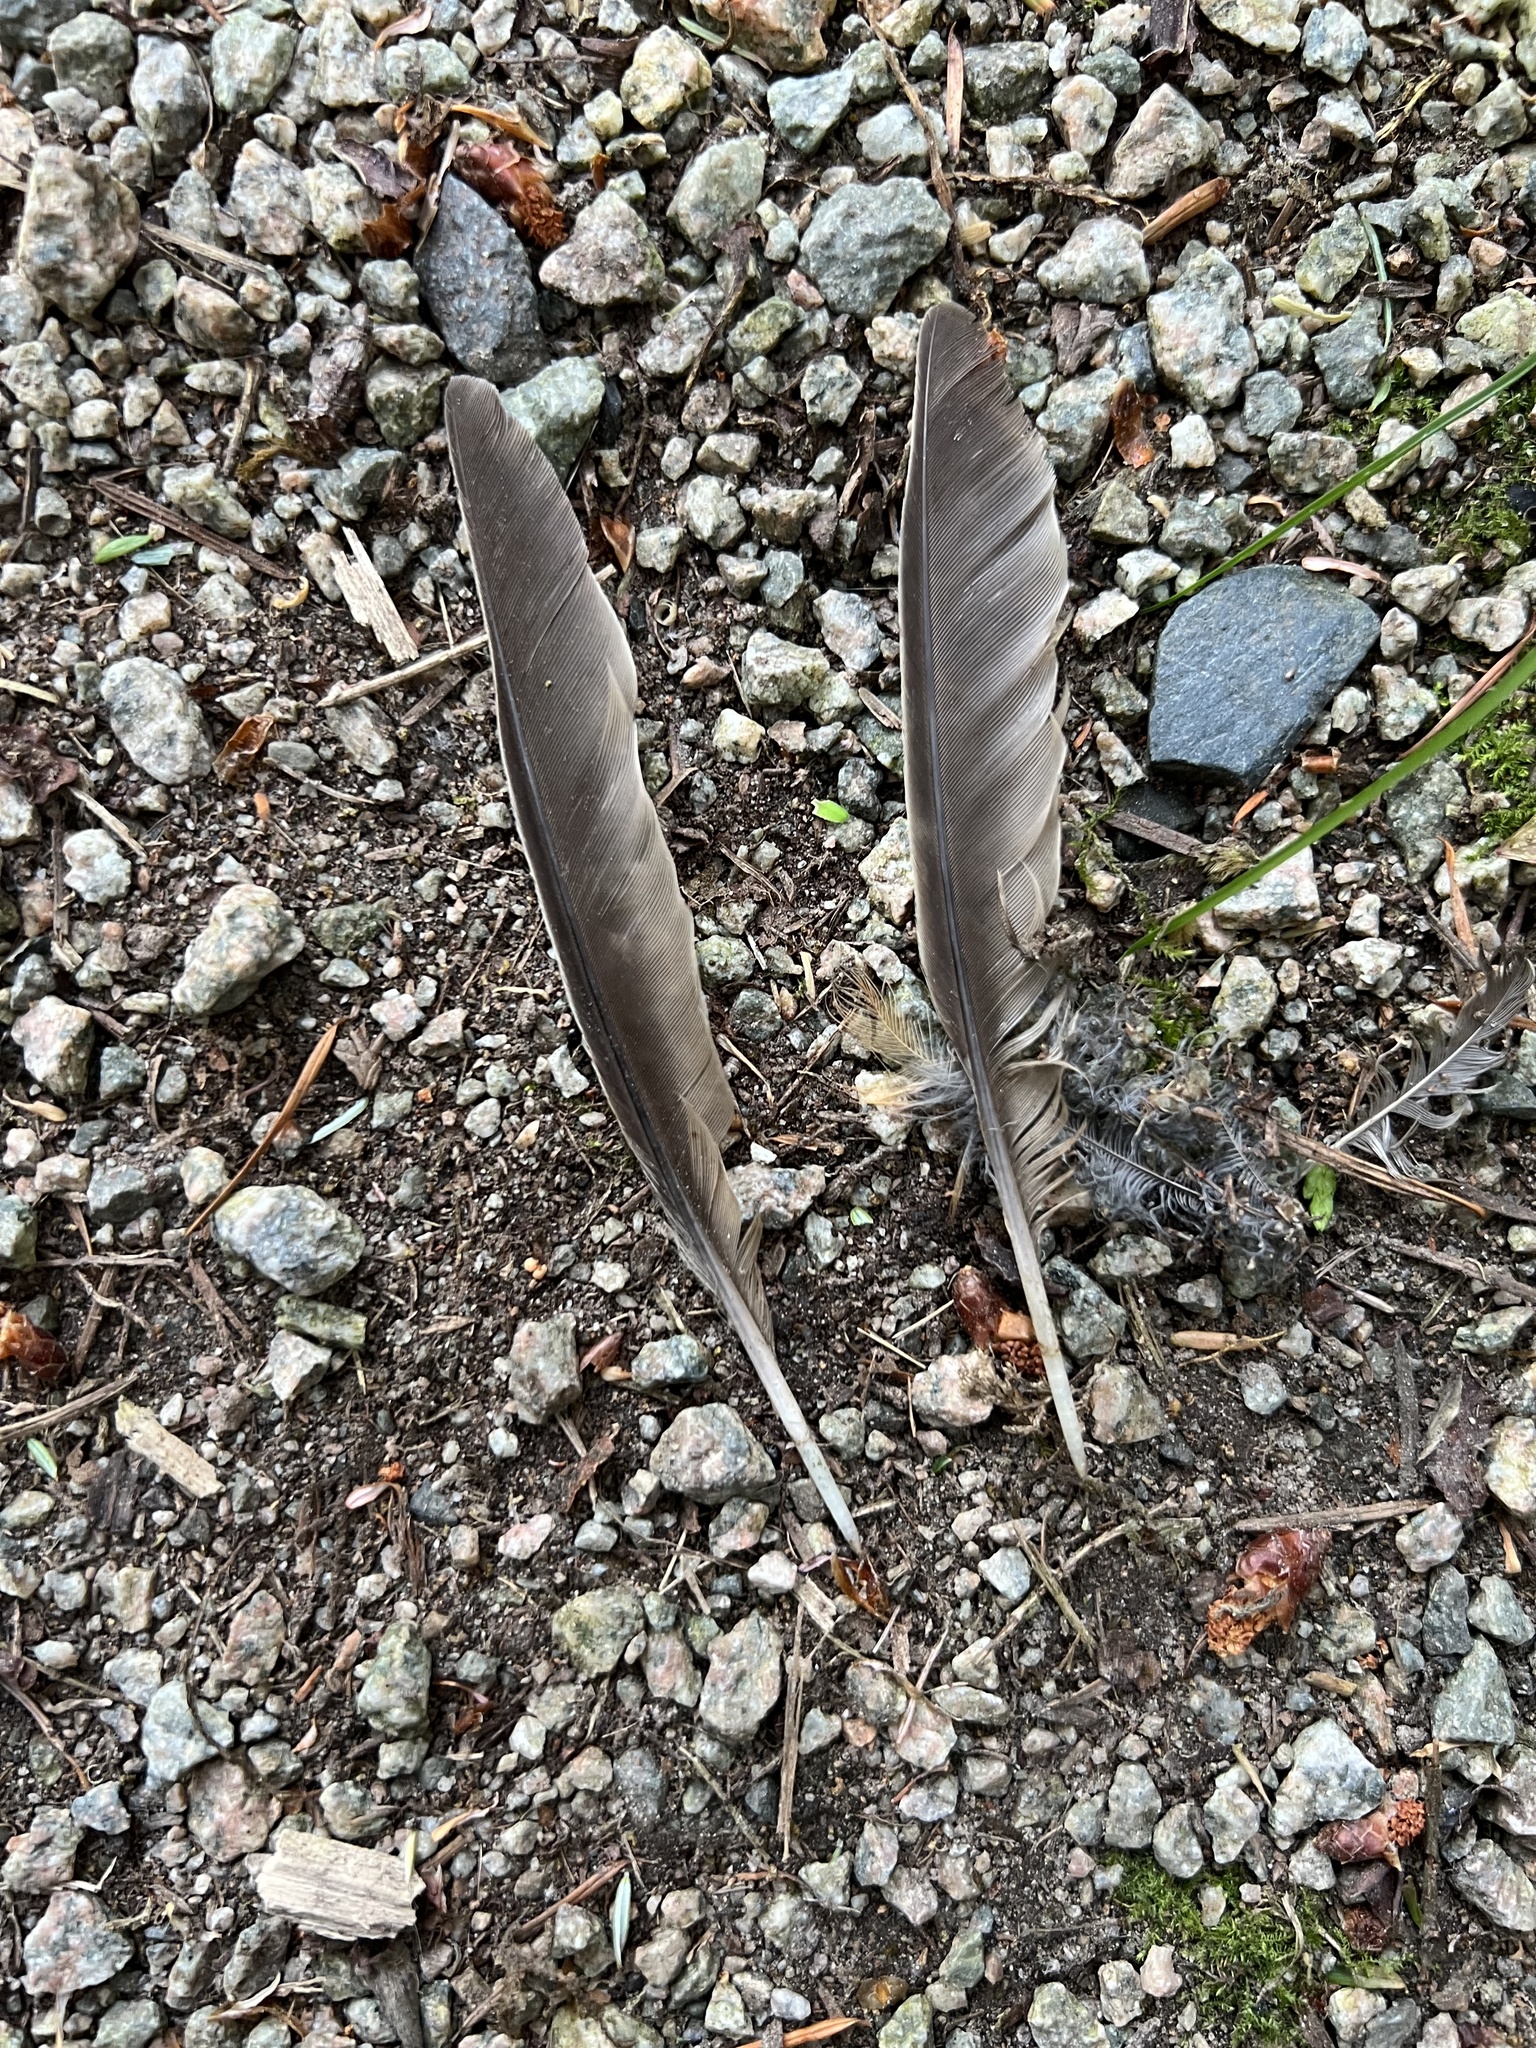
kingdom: Animalia
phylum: Chordata
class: Aves
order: Passeriformes
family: Turdidae
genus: Turdus
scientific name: Turdus migratorius
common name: American robin
